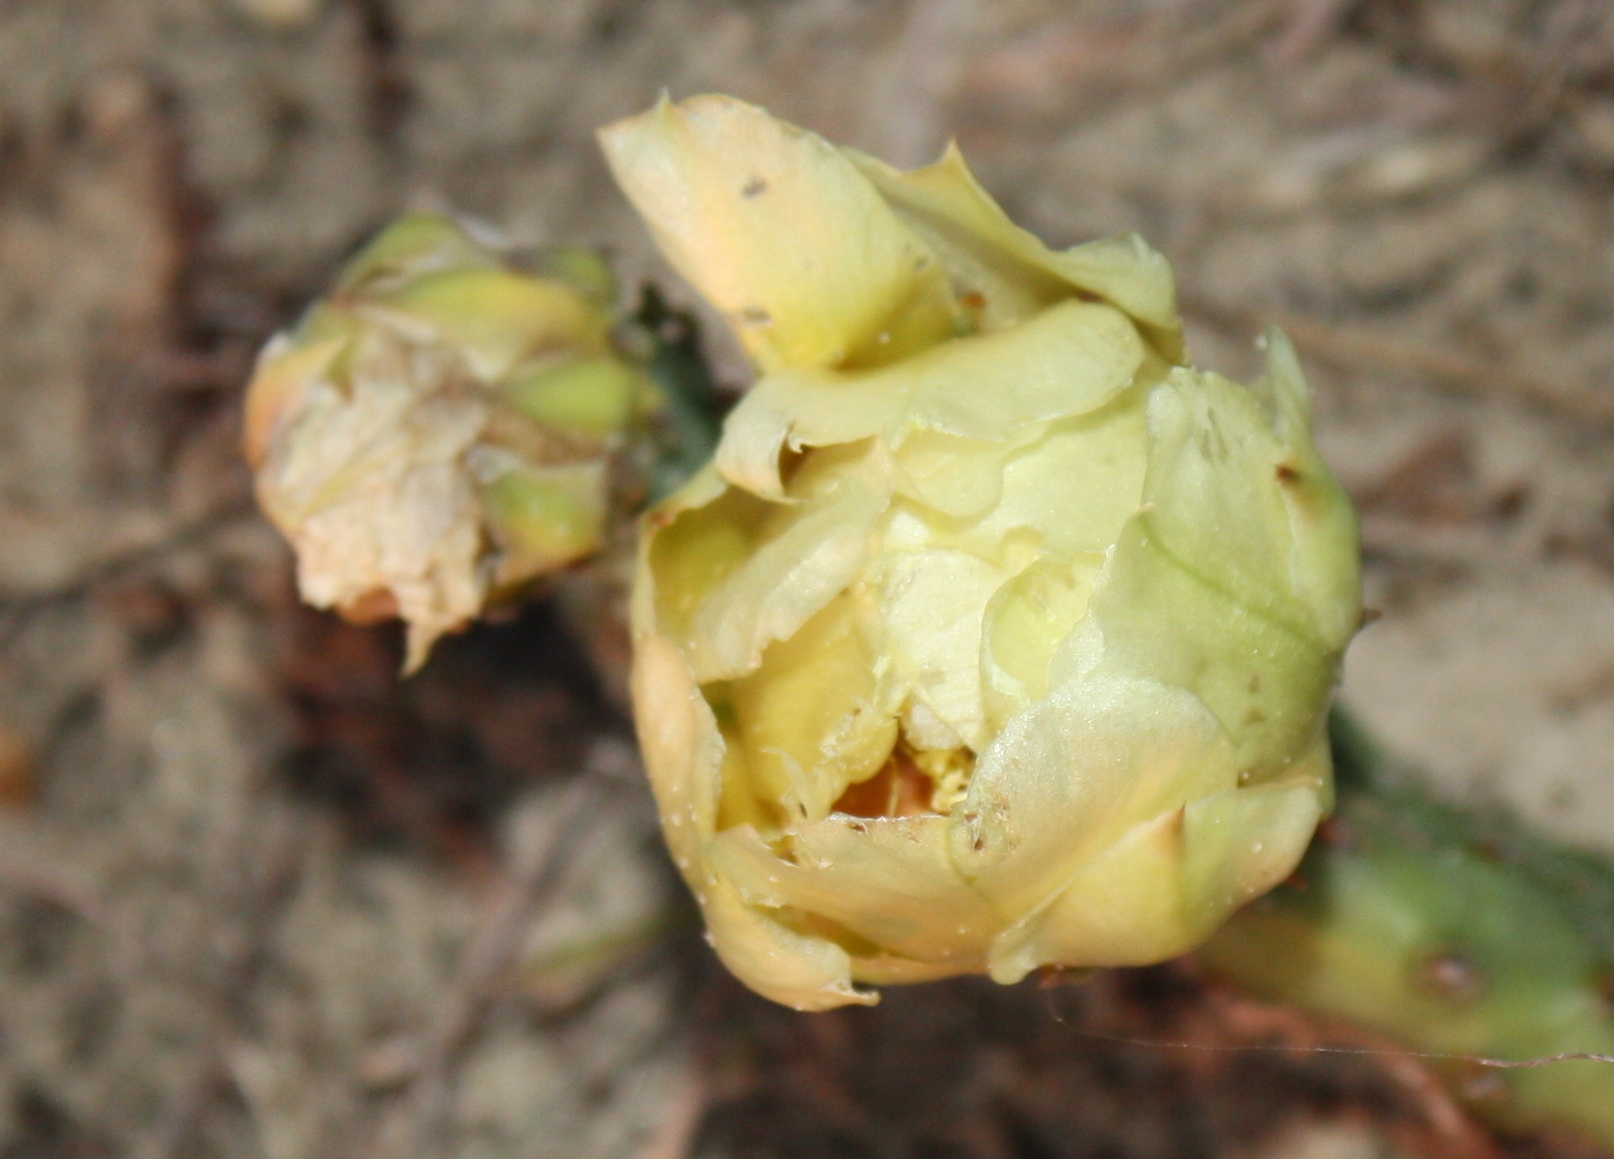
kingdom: Plantae
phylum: Tracheophyta
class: Magnoliopsida
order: Caryophyllales
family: Cactaceae
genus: Opuntia
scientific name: Opuntia macrorhiza
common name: Grassland pricklypear
